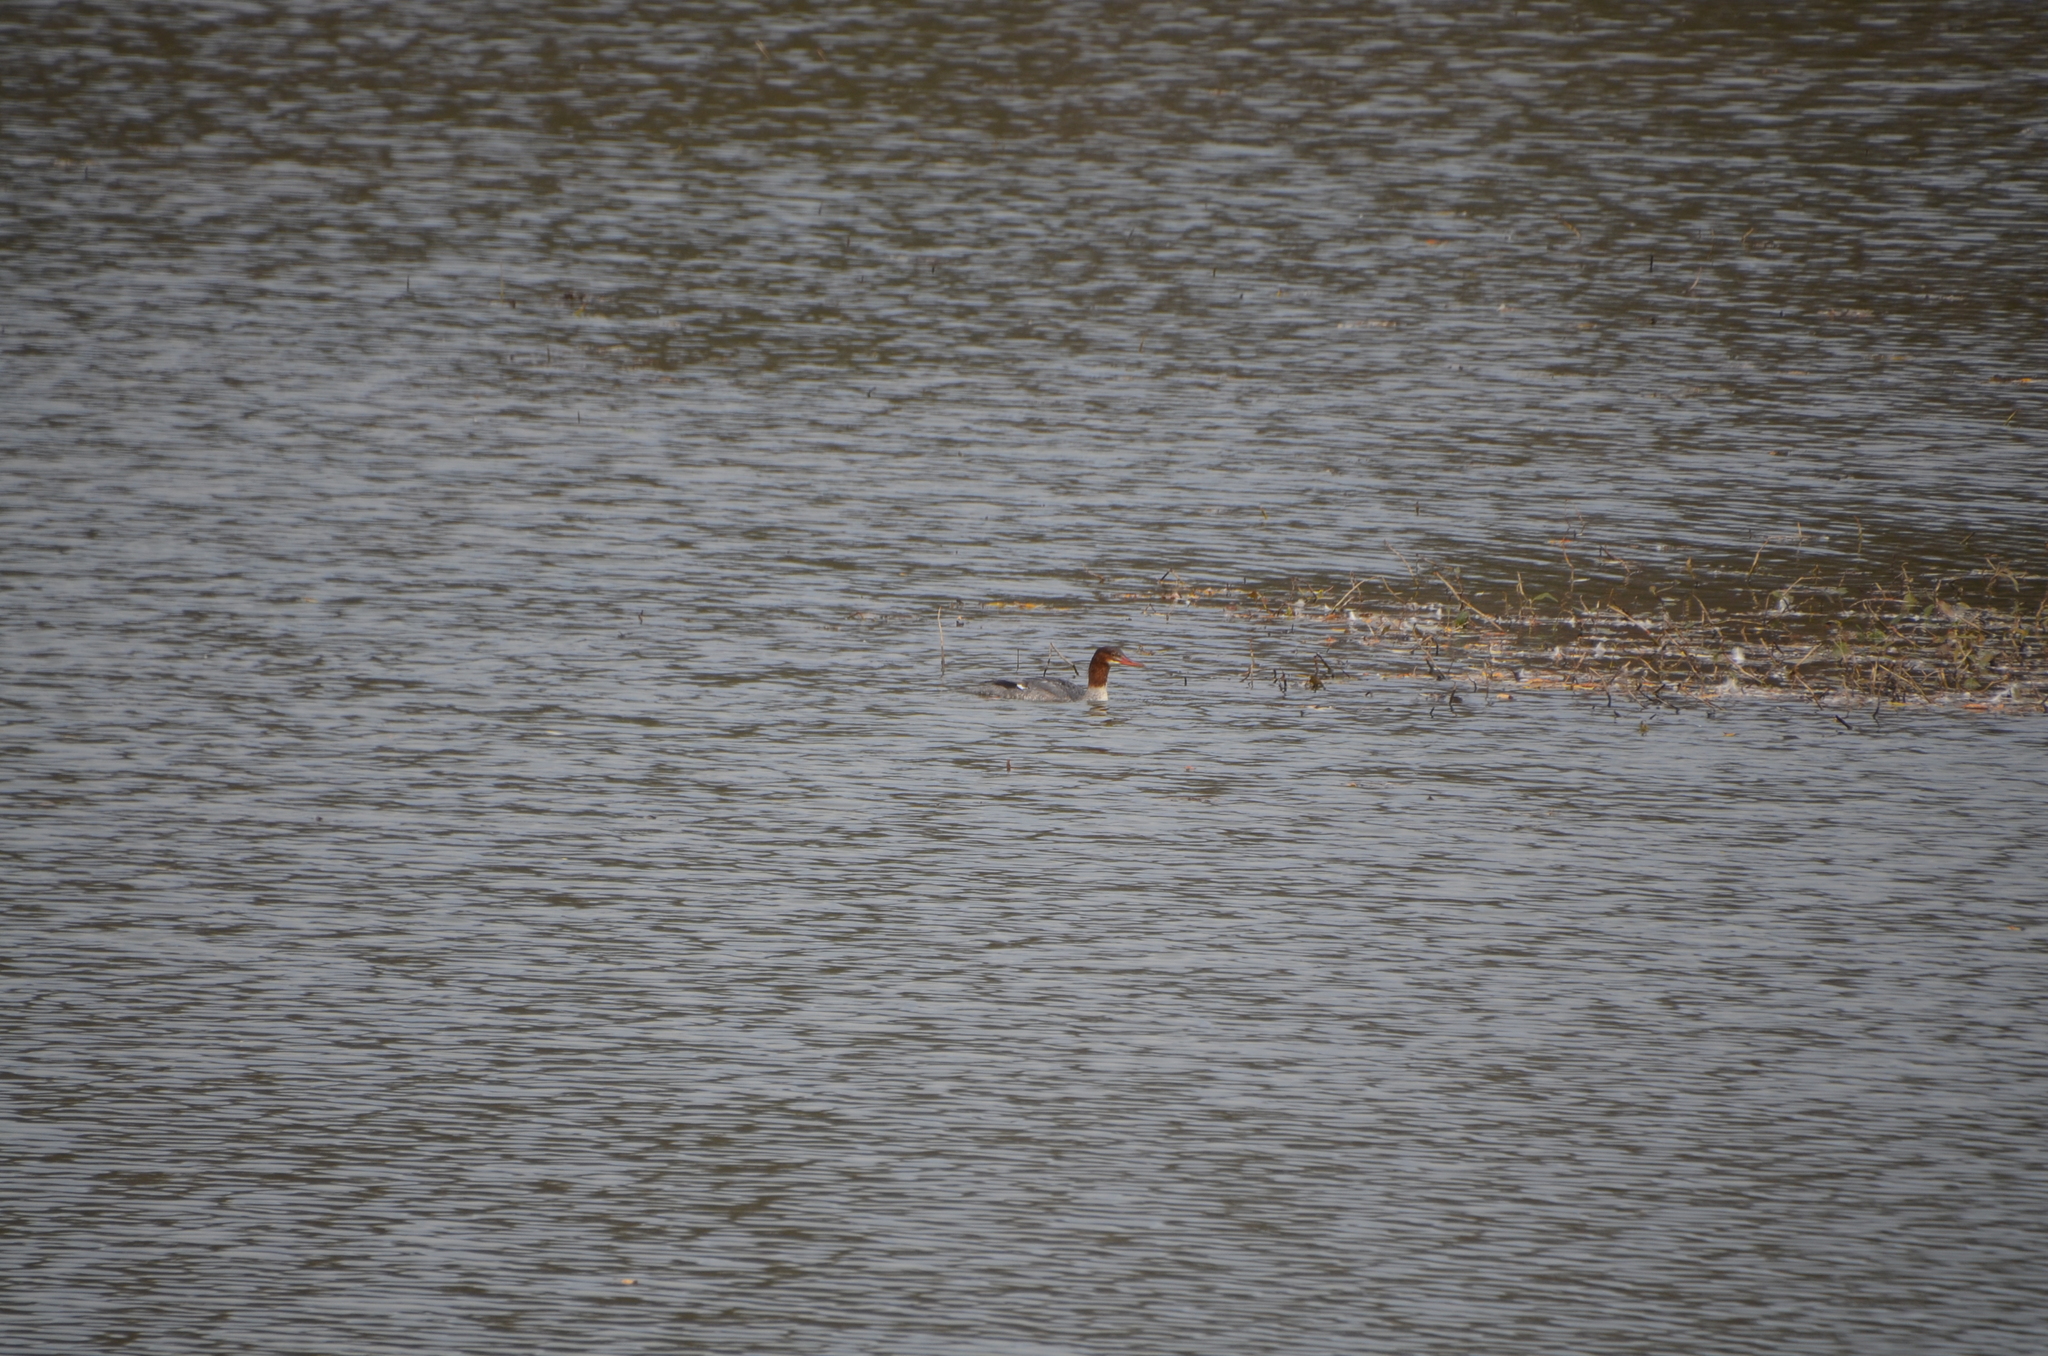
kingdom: Animalia
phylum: Chordata
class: Aves
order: Anseriformes
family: Anatidae
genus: Mergus
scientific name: Mergus merganser
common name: Common merganser
